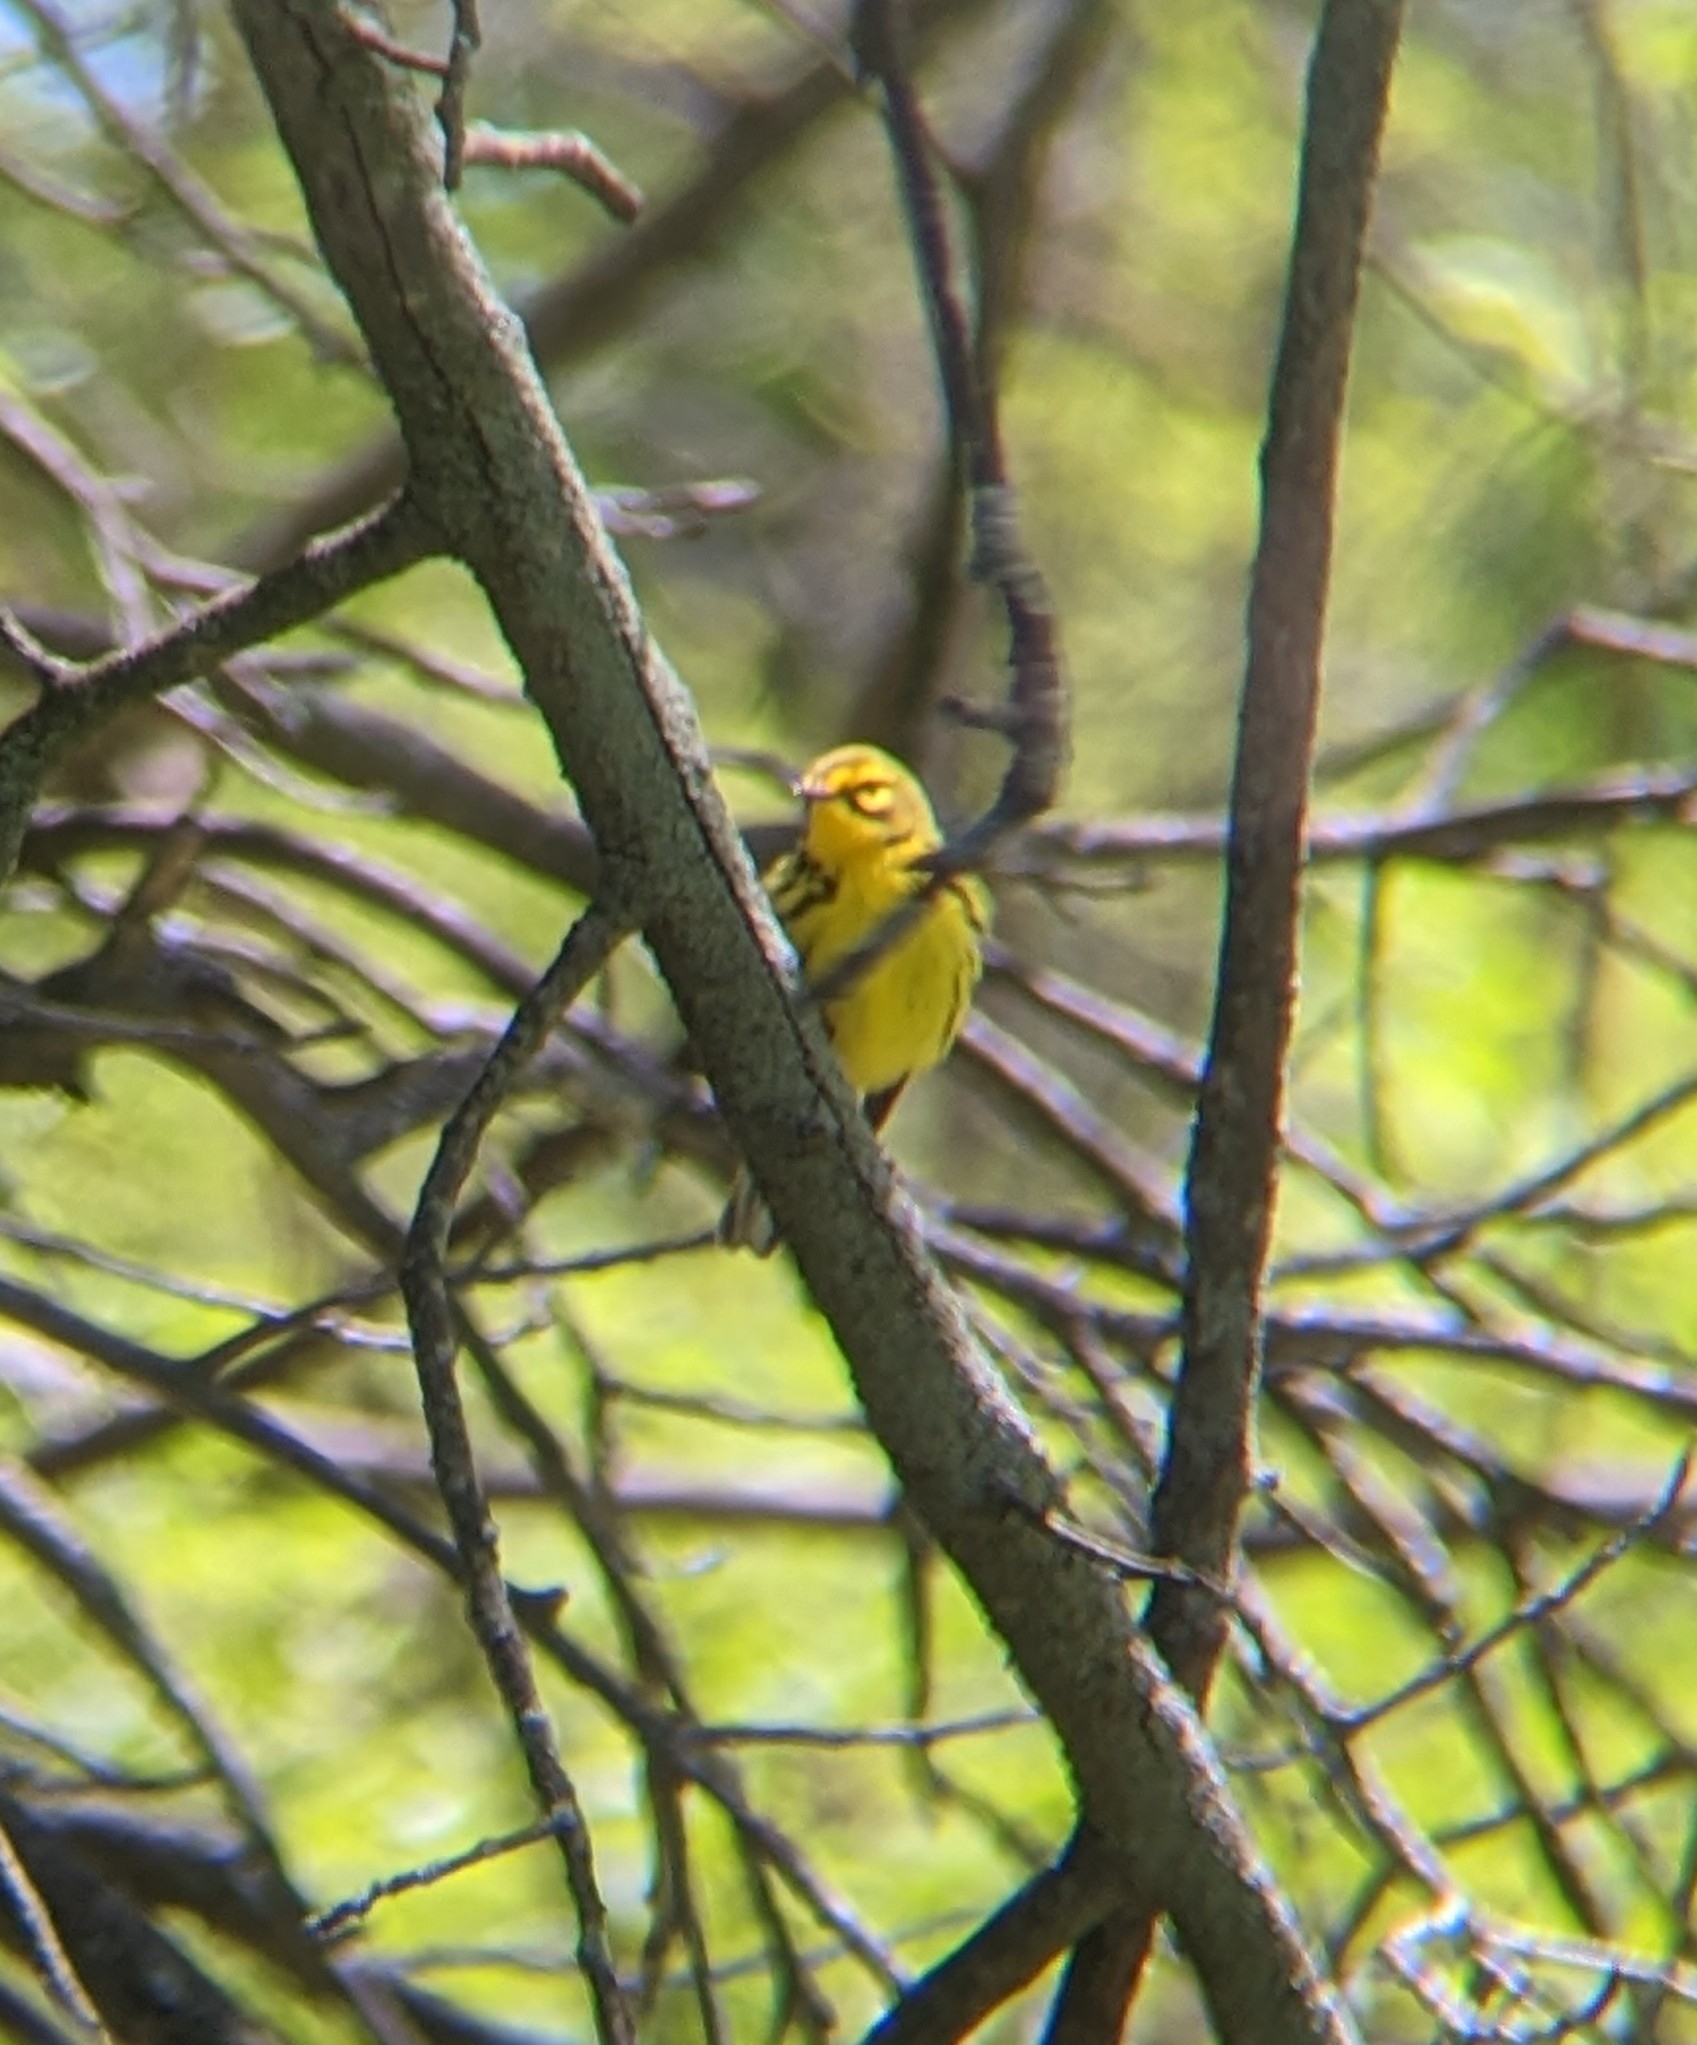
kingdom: Animalia
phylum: Chordata
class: Aves
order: Passeriformes
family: Parulidae
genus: Setophaga
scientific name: Setophaga discolor
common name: Prairie warbler
